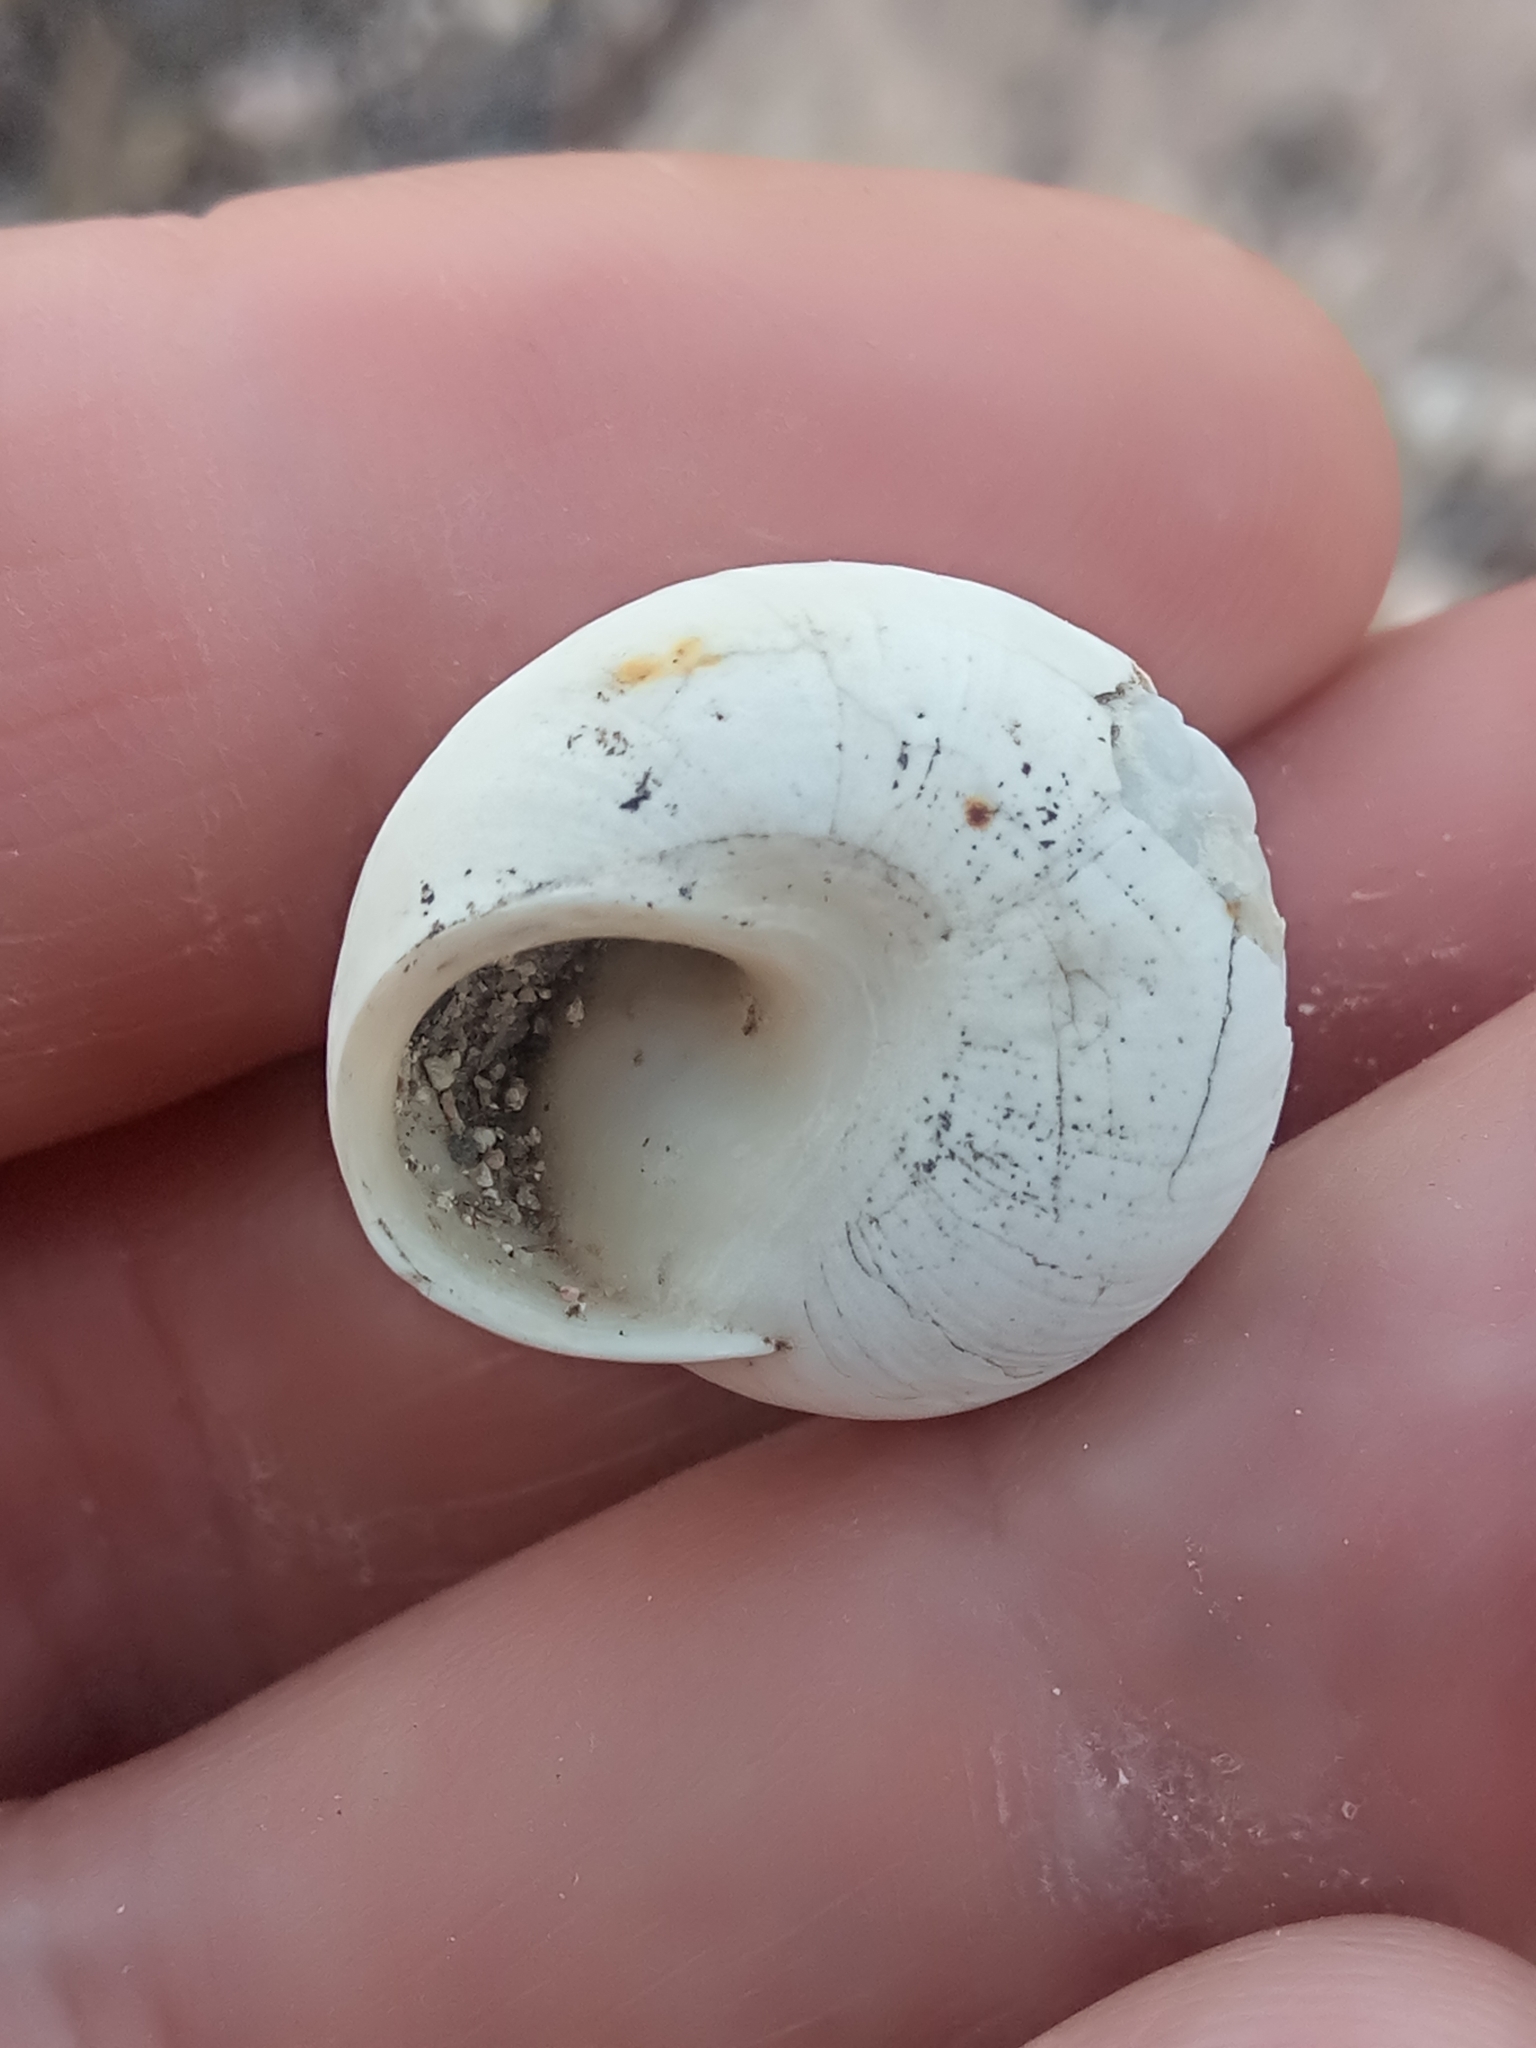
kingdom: Animalia
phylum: Mollusca
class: Gastropoda
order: Stylommatophora
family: Sphincterochilidae
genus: Sphincterochila
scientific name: Sphincterochila candidissima
